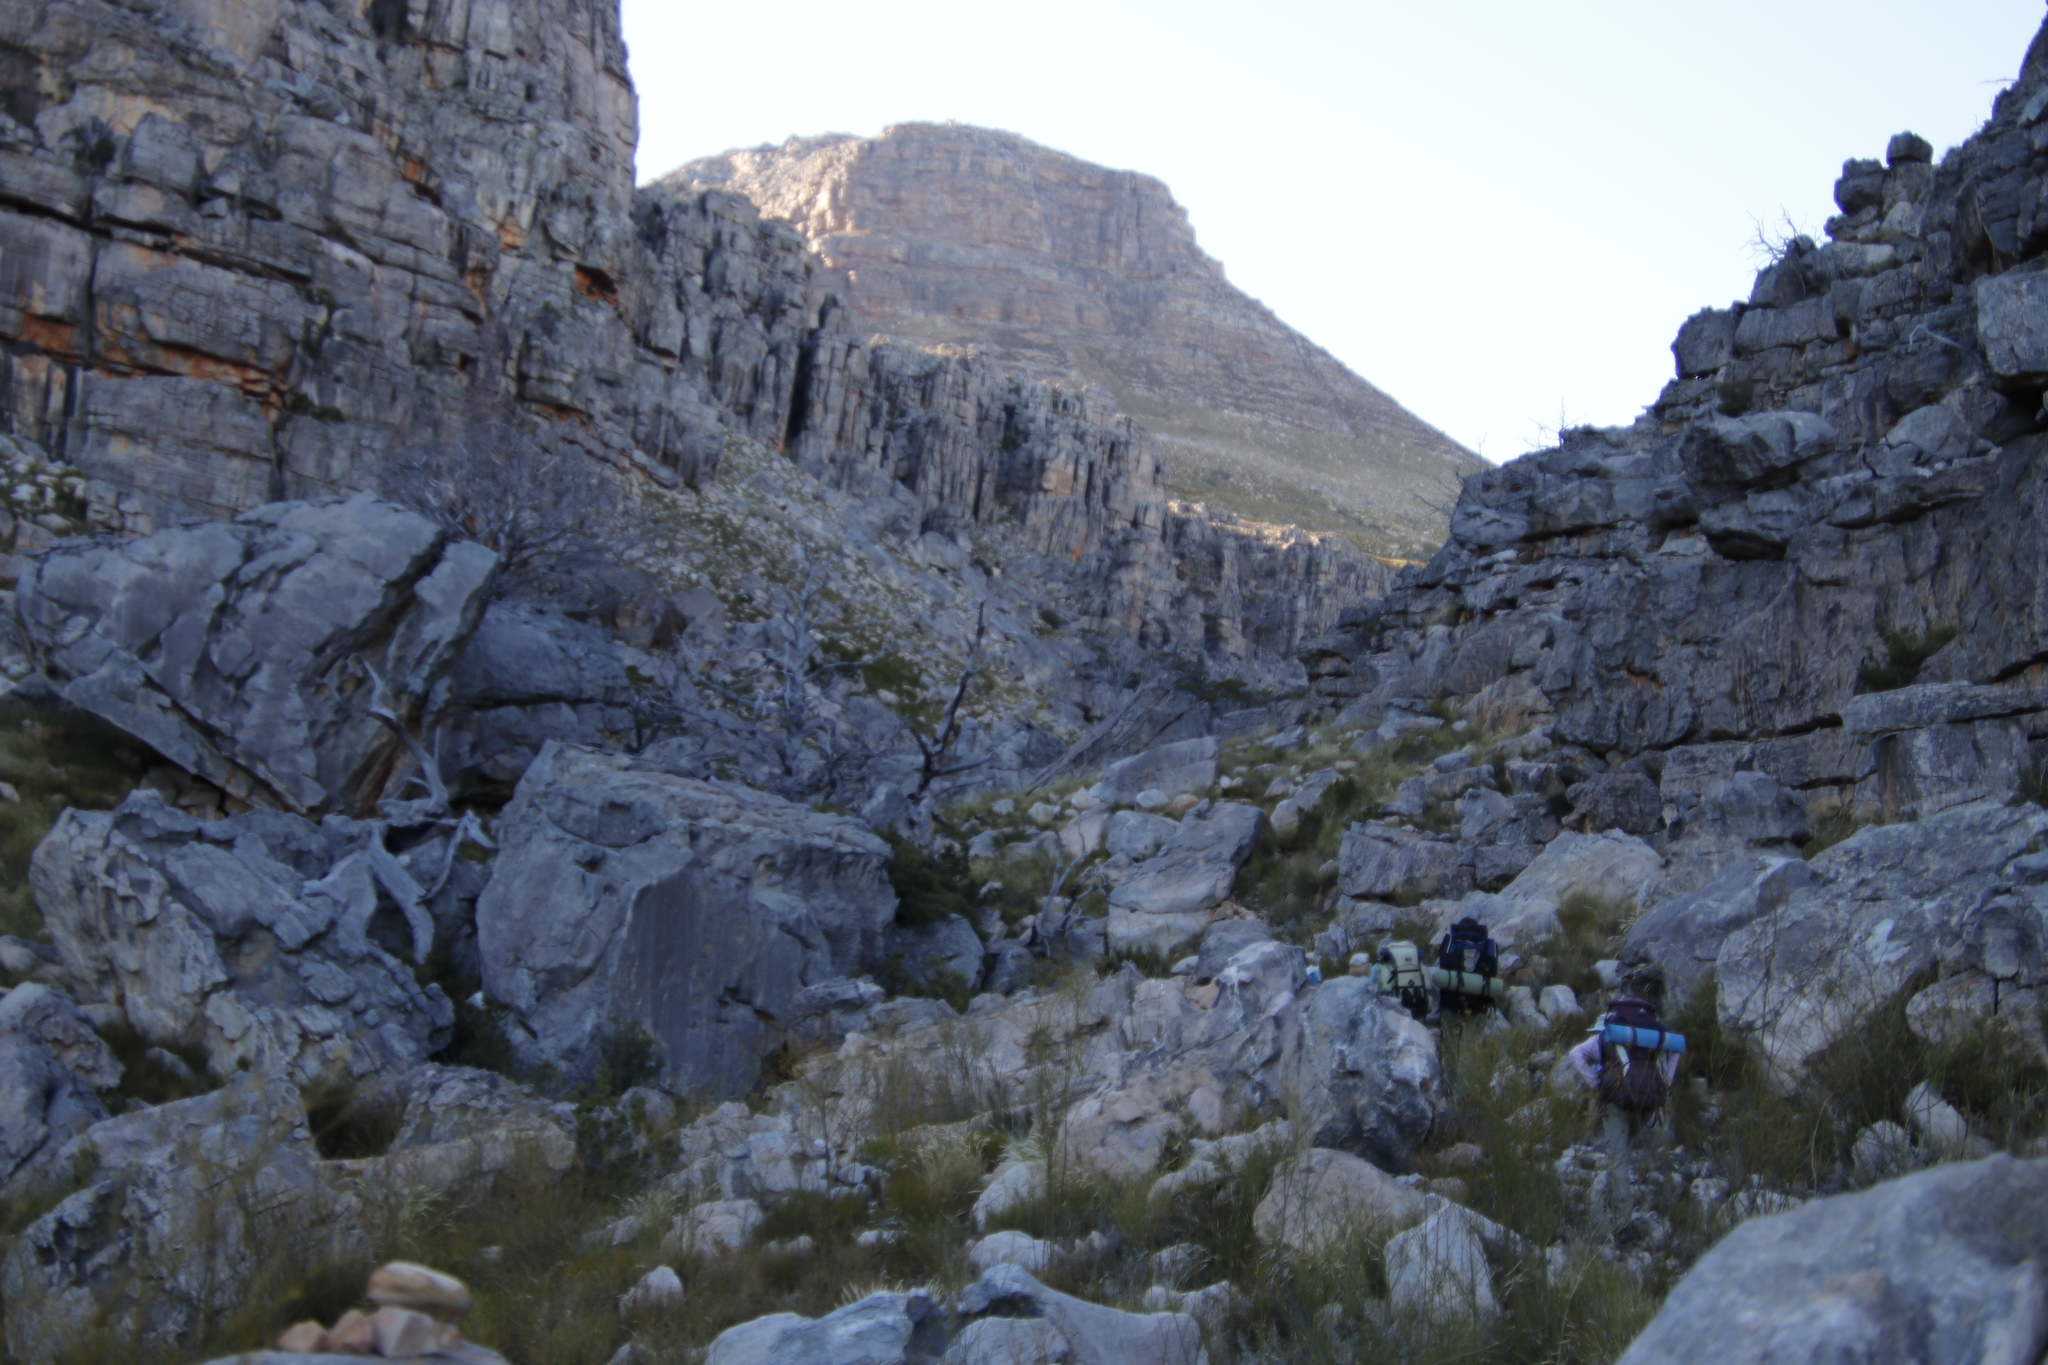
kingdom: Plantae
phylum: Tracheophyta
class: Pinopsida
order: Pinales
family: Cupressaceae
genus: Widdringtonia
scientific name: Widdringtonia nodiflora
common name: Cape cypress
